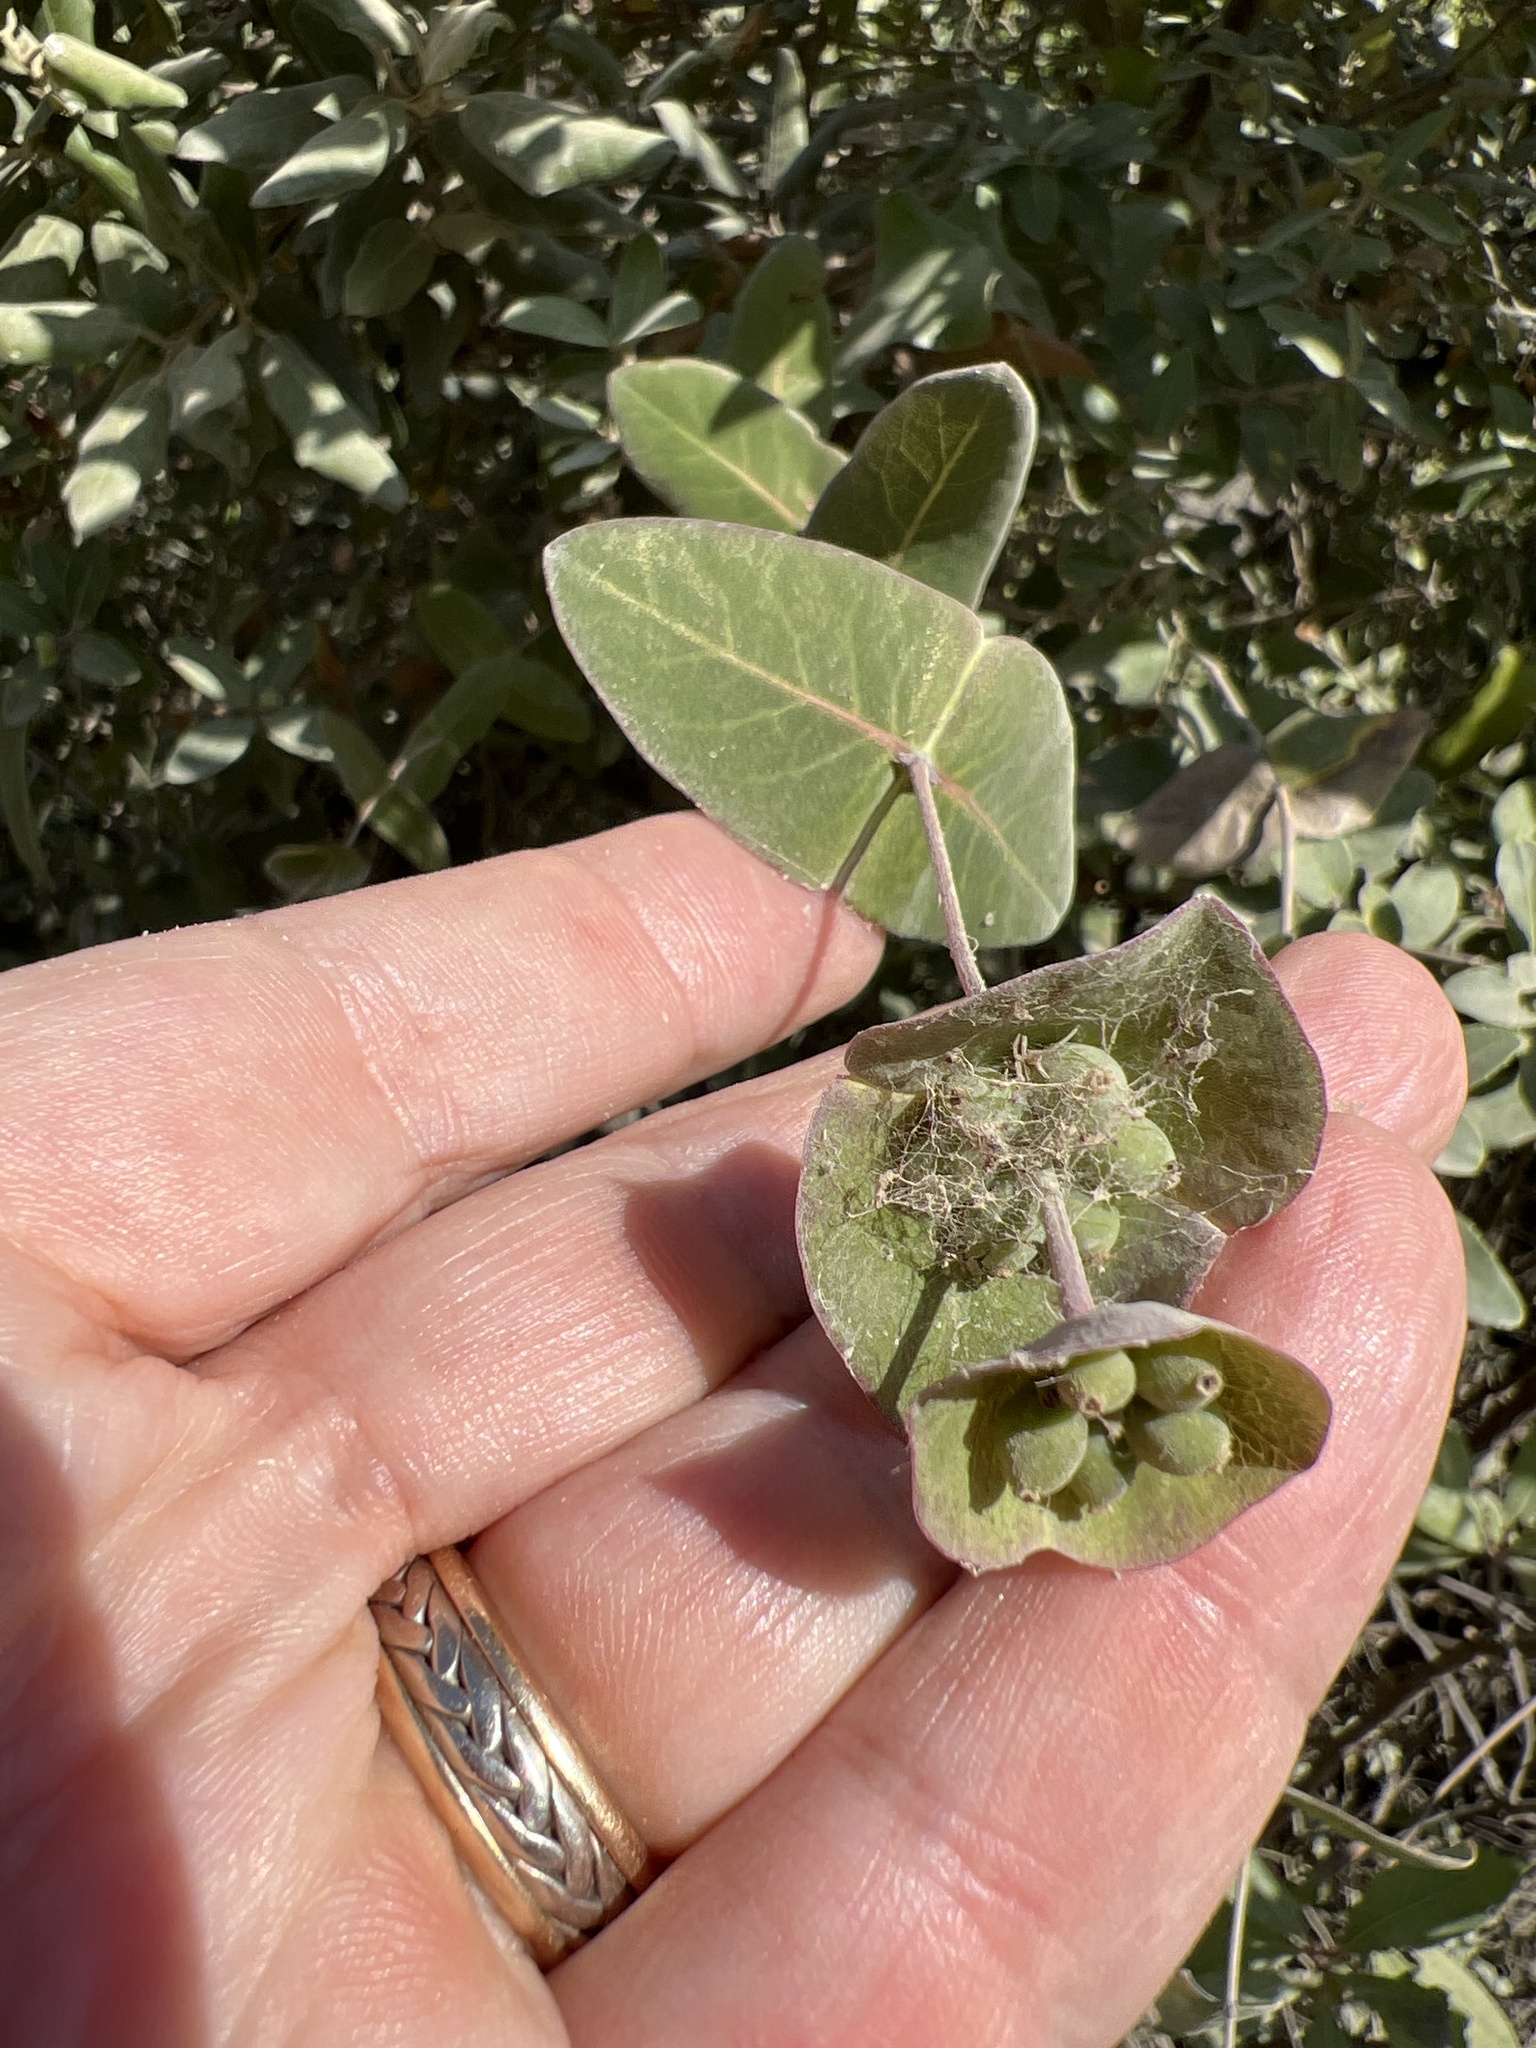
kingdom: Plantae
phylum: Tracheophyta
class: Magnoliopsida
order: Dipsacales
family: Caprifoliaceae
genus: Lonicera
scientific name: Lonicera implexa
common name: Minorca honeysuckle
